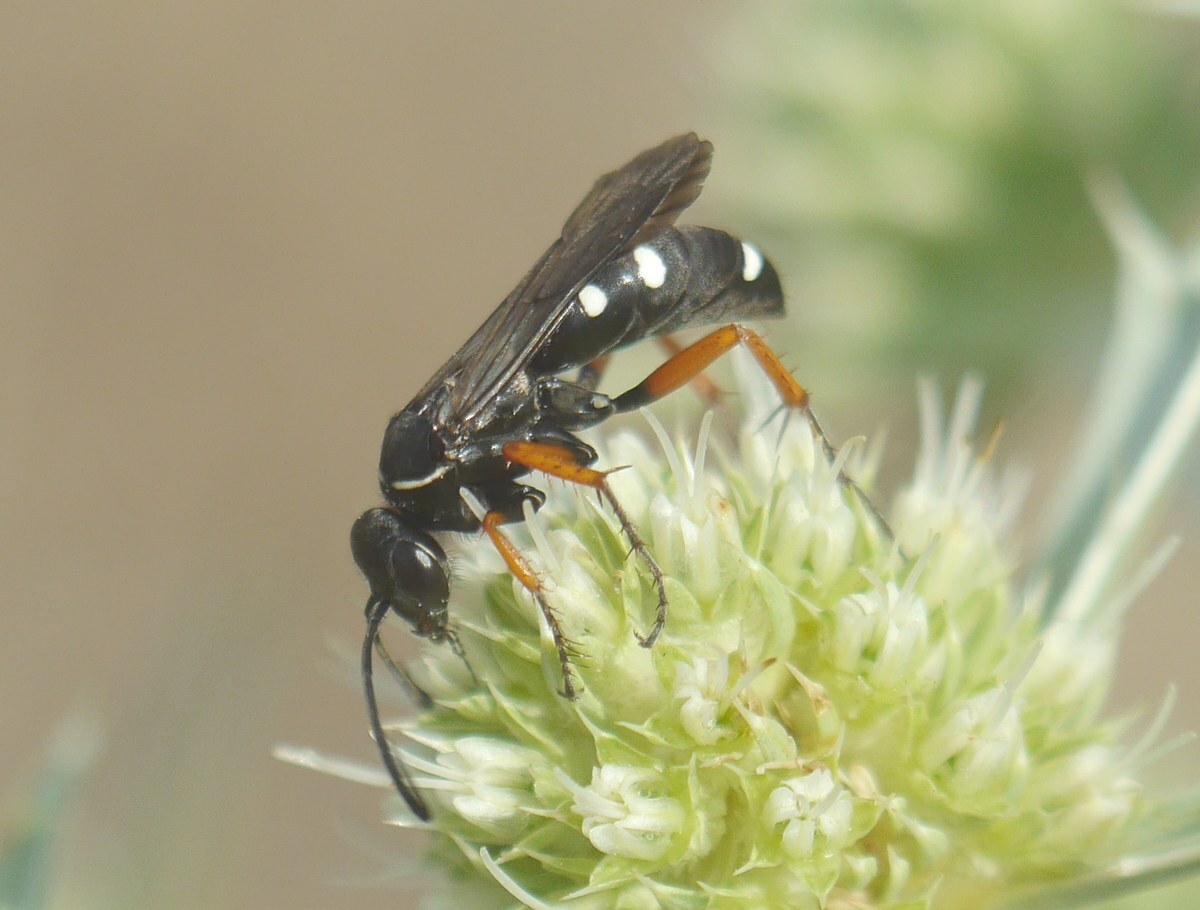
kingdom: Animalia
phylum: Arthropoda
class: Insecta
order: Hymenoptera
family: Pompilidae
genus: Episyron
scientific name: Episyron albonotatum
